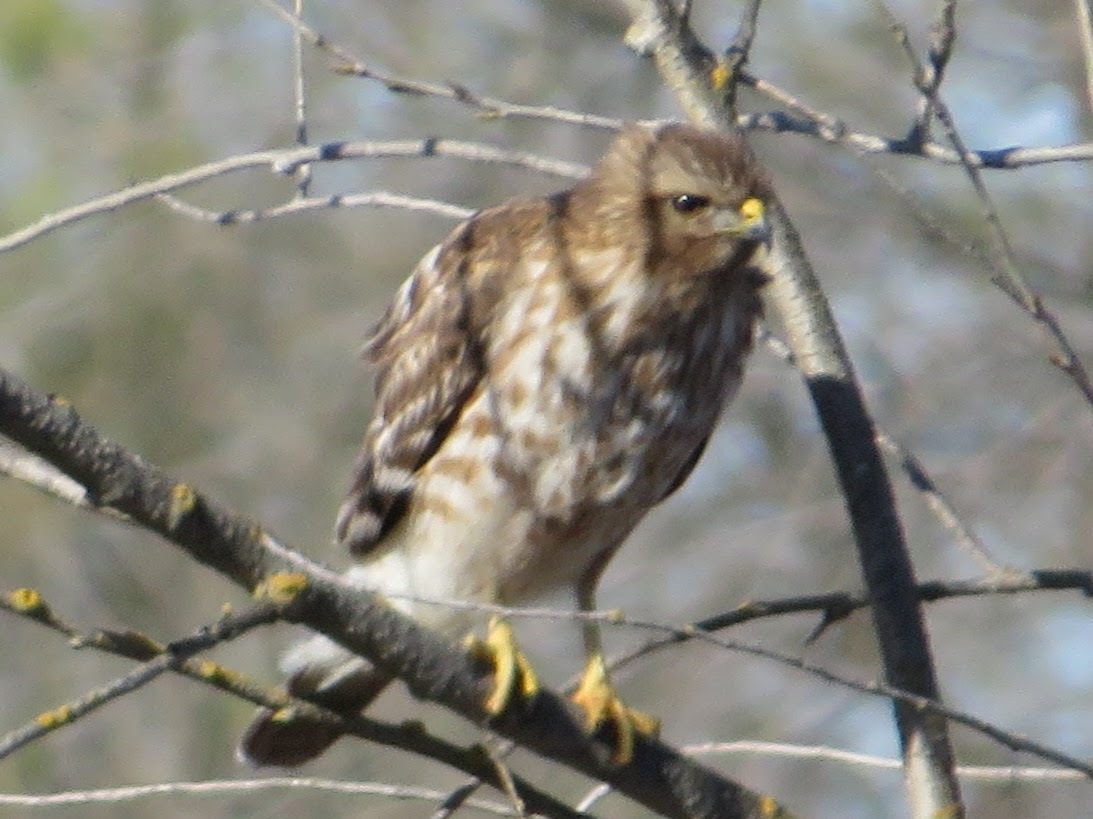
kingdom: Animalia
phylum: Chordata
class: Aves
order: Accipitriformes
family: Accipitridae
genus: Buteo
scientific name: Buteo lineatus
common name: Red-shouldered hawk
